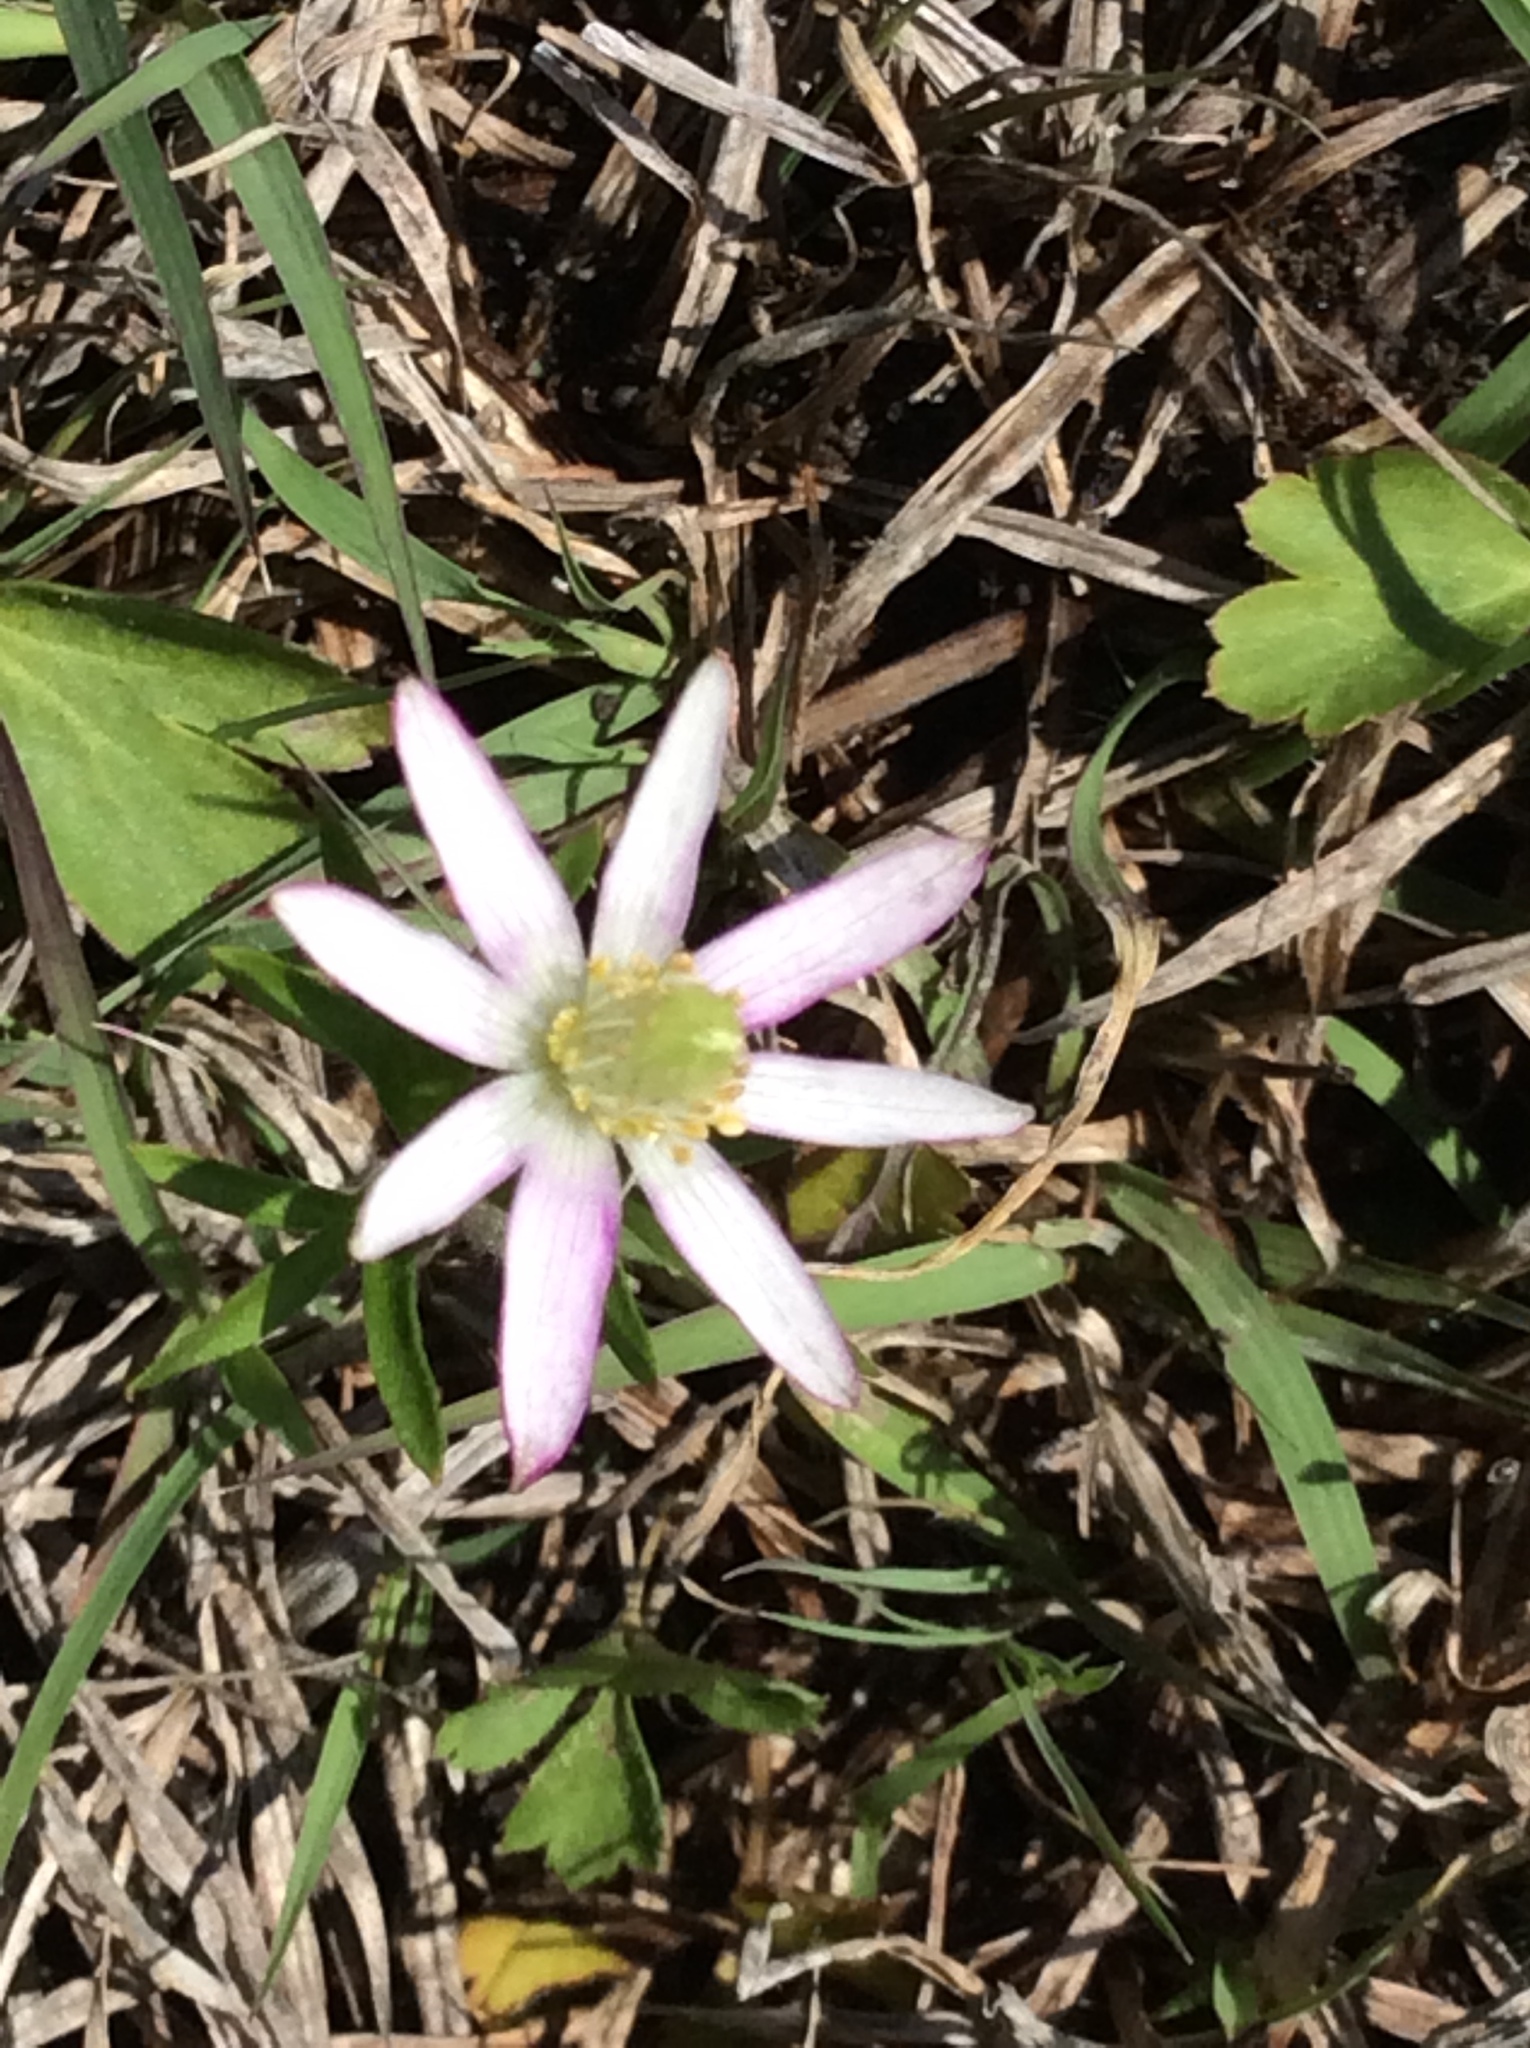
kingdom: Plantae
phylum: Tracheophyta
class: Magnoliopsida
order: Ranunculales
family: Ranunculaceae
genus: Anemone
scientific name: Anemone berlandieri
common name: Ten-petal anemone
